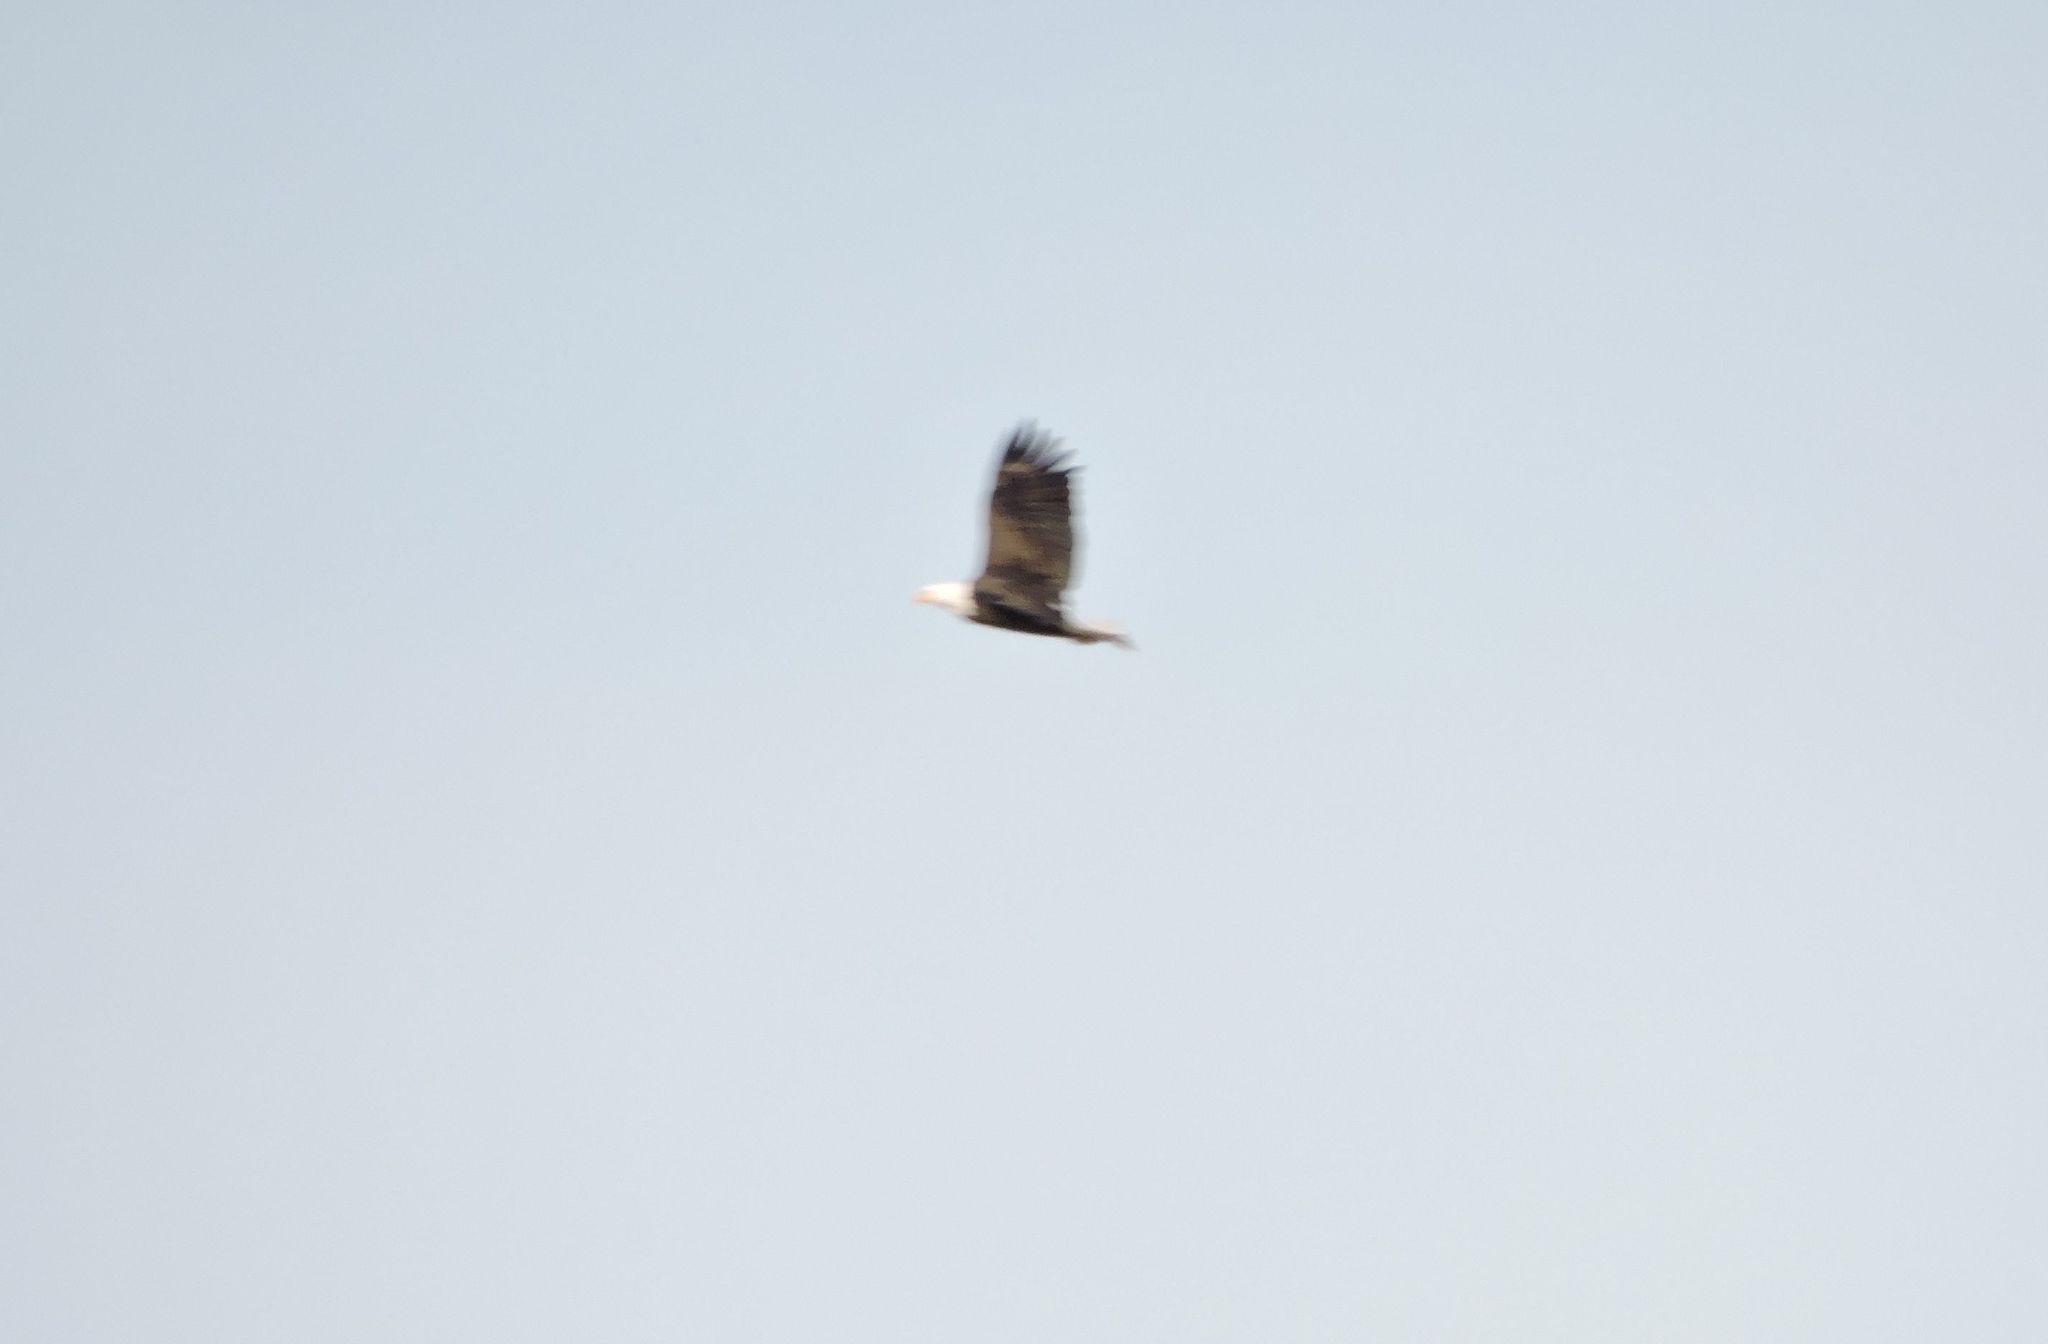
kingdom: Animalia
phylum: Chordata
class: Aves
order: Accipitriformes
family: Accipitridae
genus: Haliaeetus
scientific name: Haliaeetus leucocephalus
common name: Bald eagle
